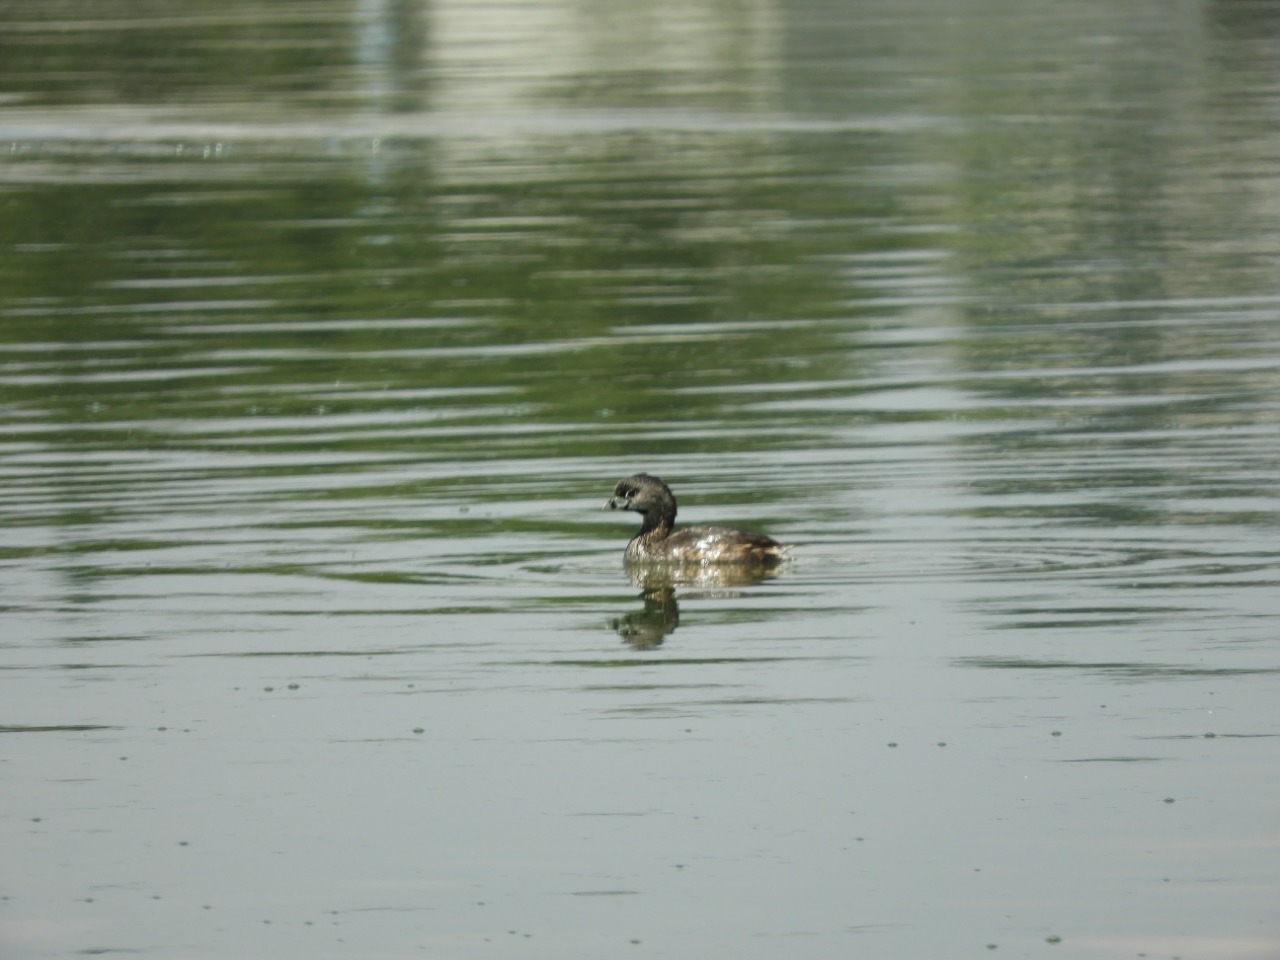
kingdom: Animalia
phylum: Chordata
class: Aves
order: Podicipediformes
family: Podicipedidae
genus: Podilymbus
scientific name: Podilymbus podiceps
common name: Pied-billed grebe
